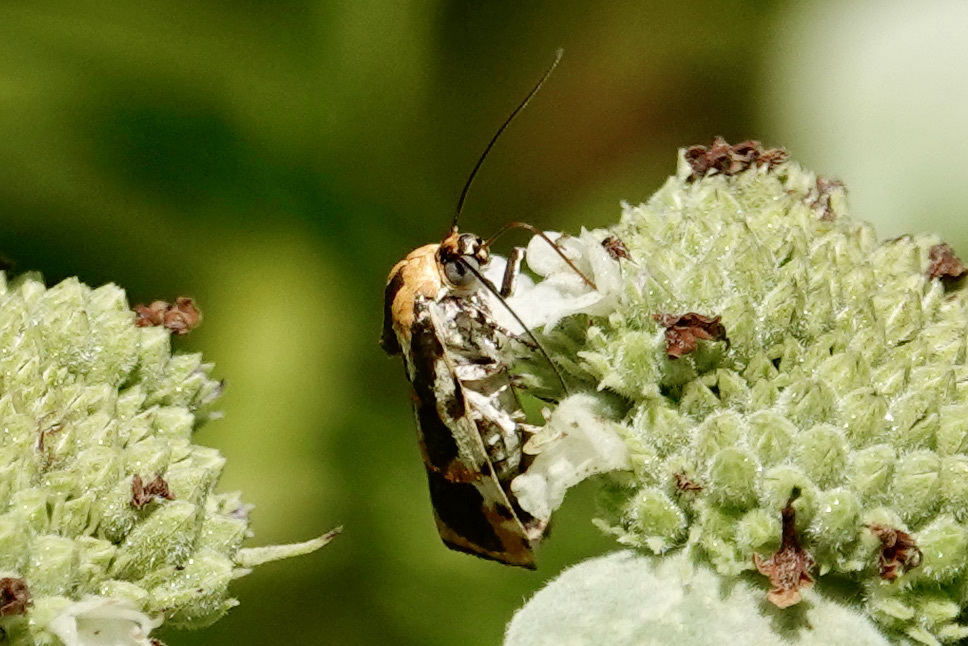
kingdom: Animalia
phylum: Arthropoda
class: Insecta
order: Lepidoptera
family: Noctuidae
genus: Acontia
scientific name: Acontia leo
